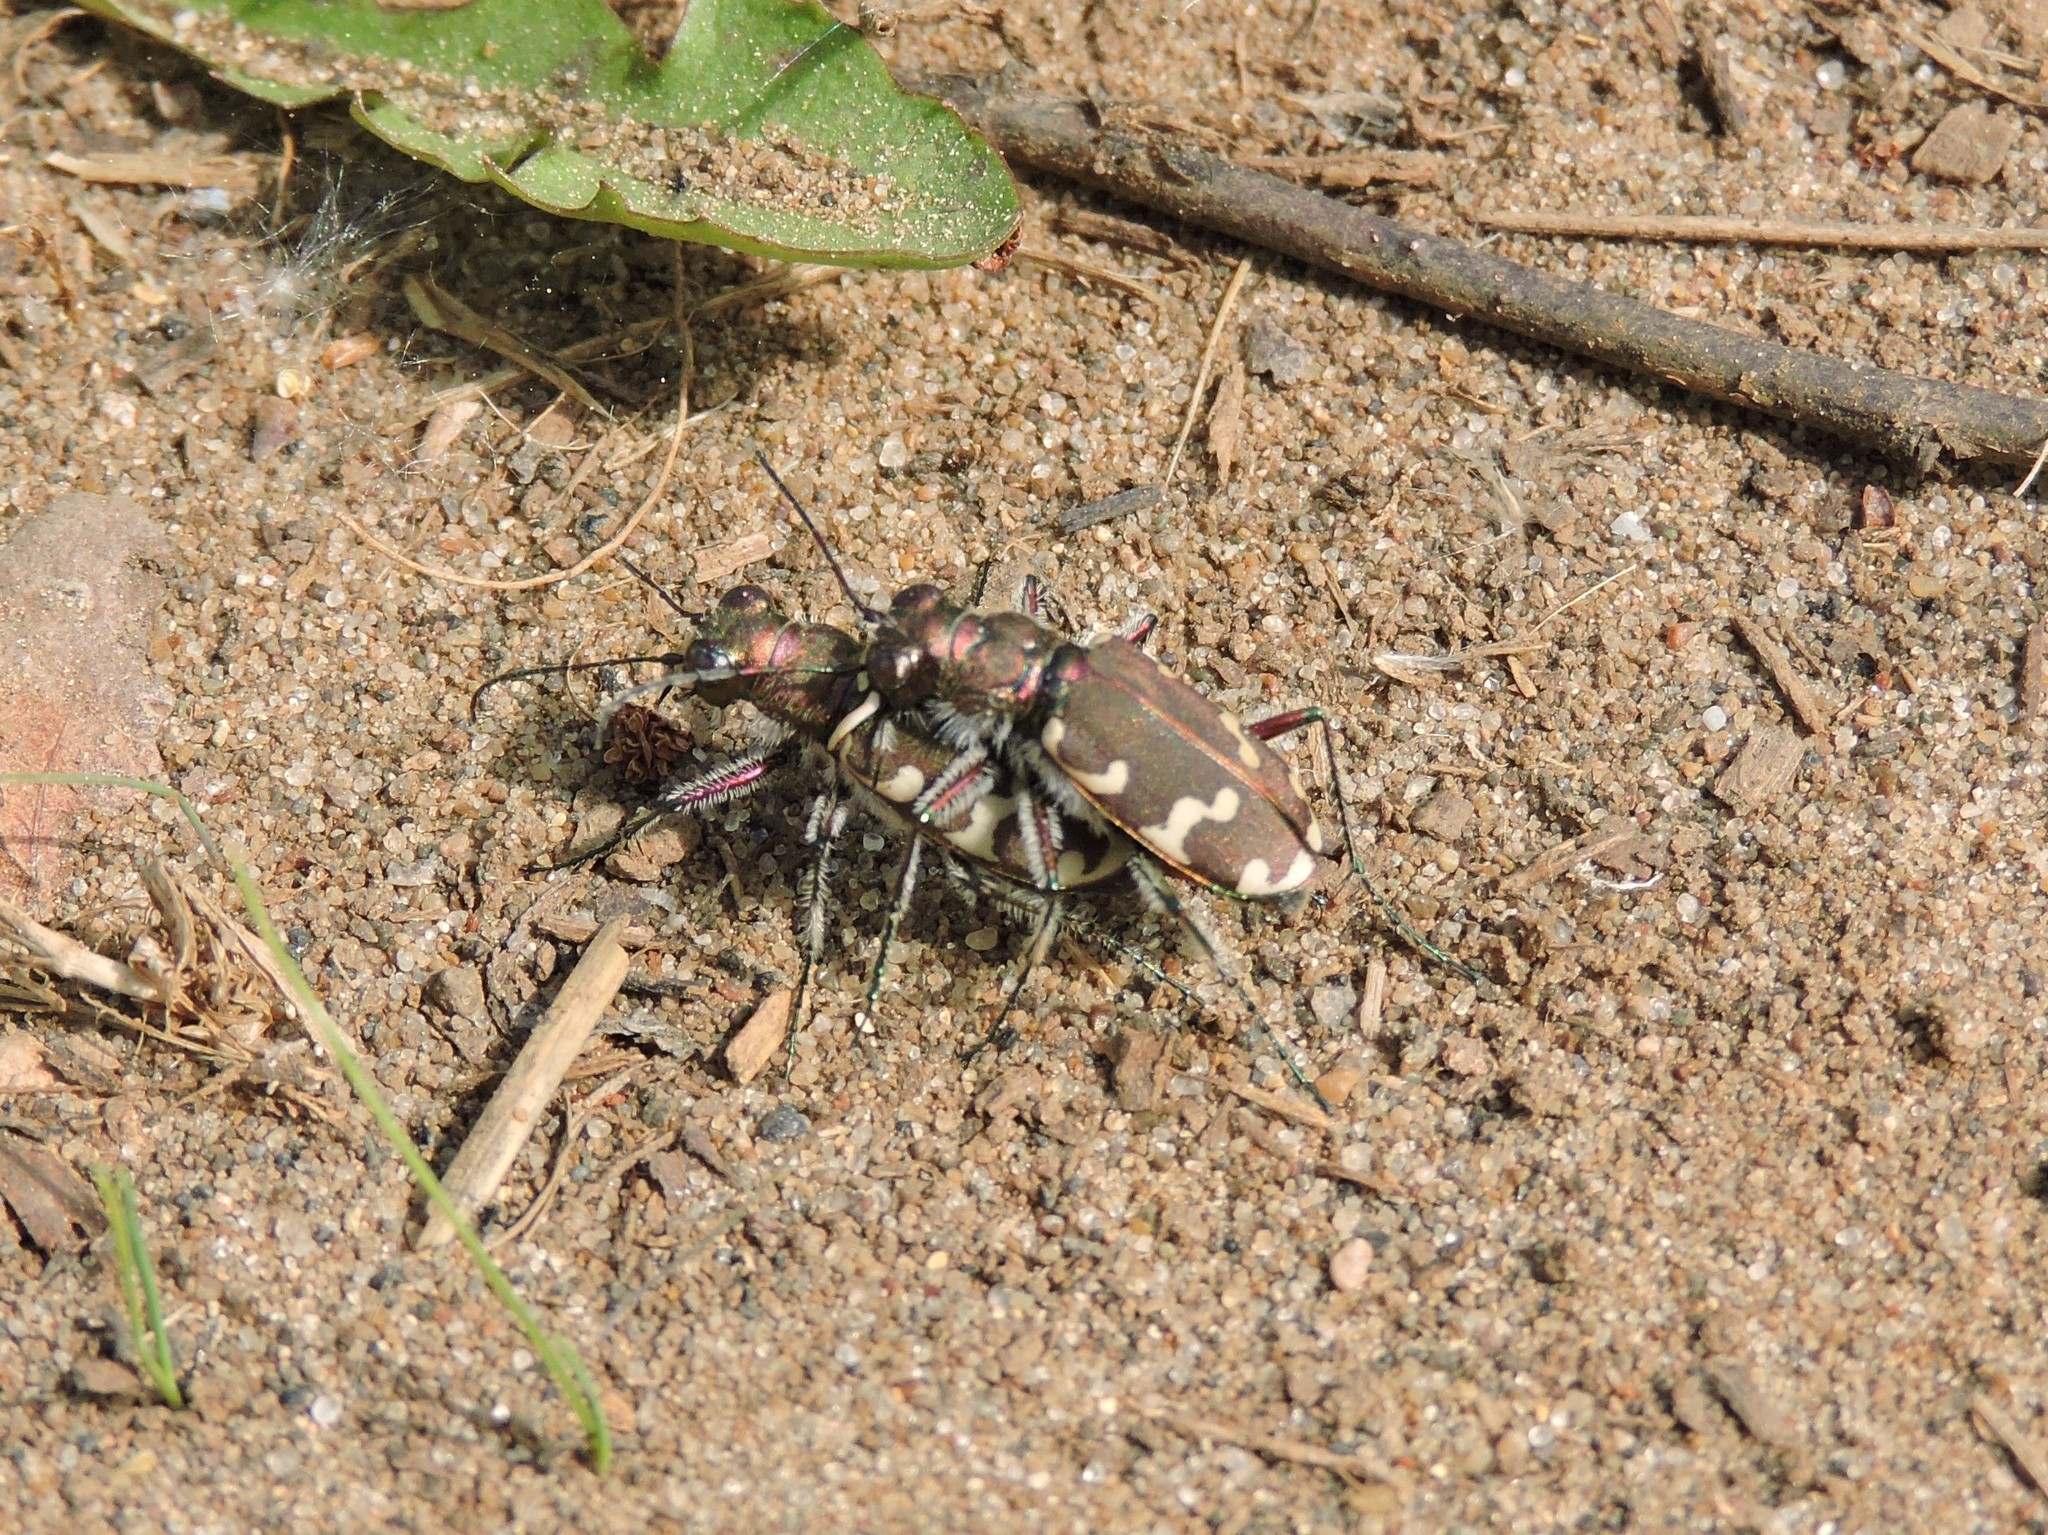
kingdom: Animalia
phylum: Arthropoda
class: Insecta
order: Coleoptera
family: Carabidae
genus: Cicindela
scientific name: Cicindela hybrida
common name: Northern dune tiger beetle
